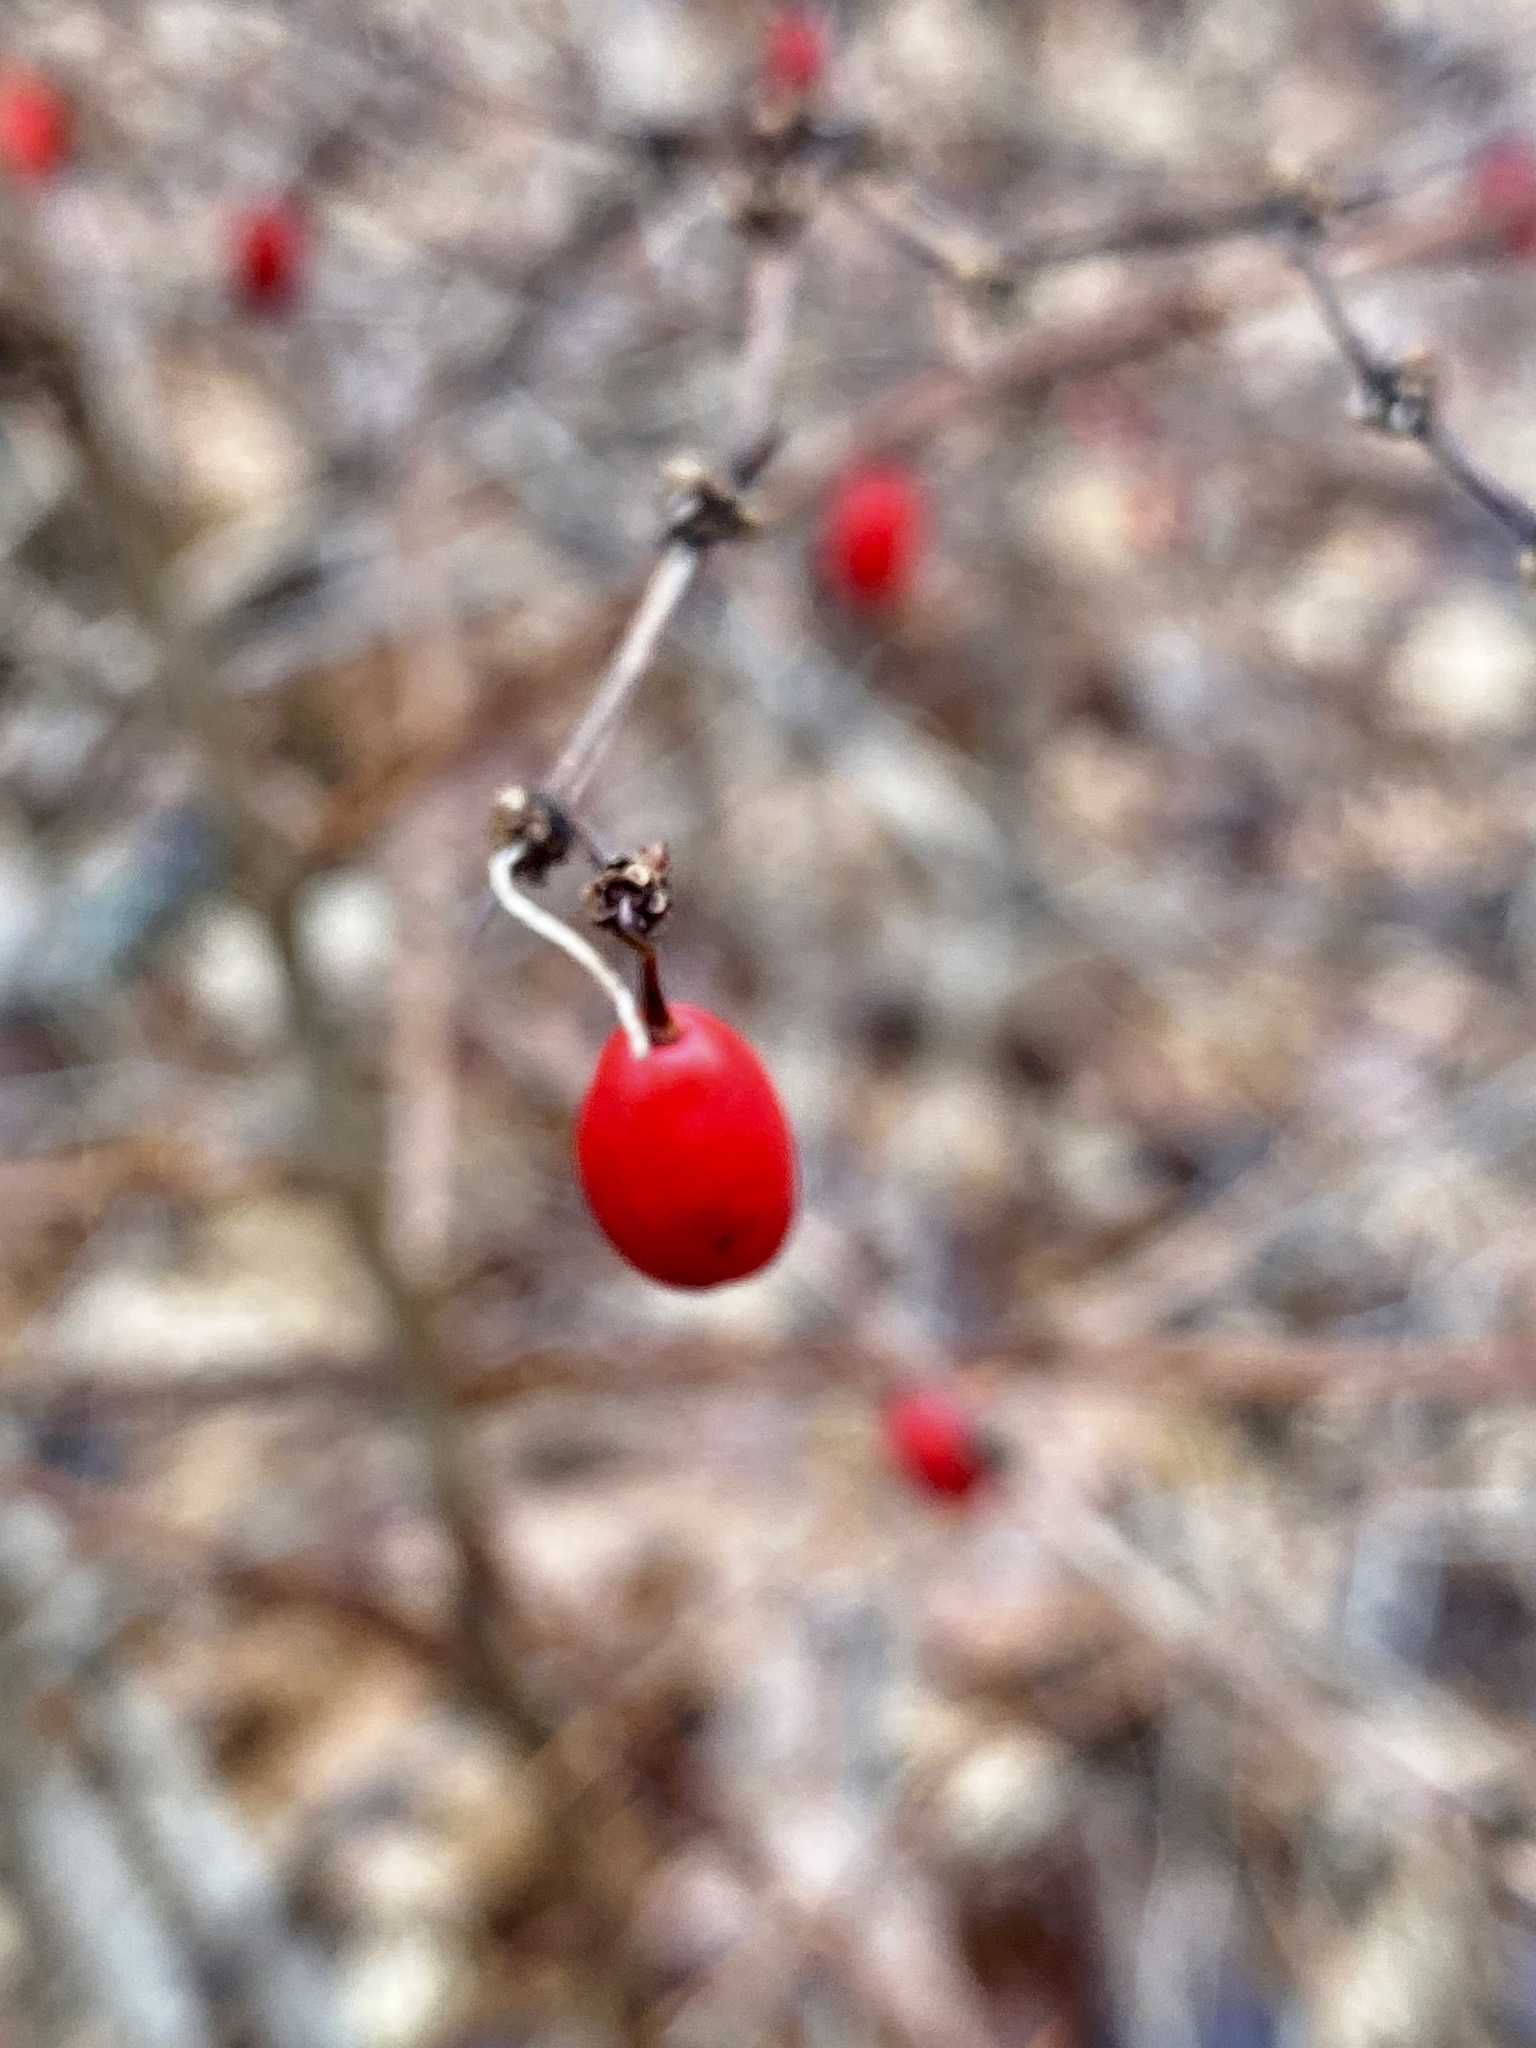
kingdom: Plantae
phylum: Tracheophyta
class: Magnoliopsida
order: Ranunculales
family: Berberidaceae
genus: Berberis
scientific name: Berberis thunbergii
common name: Japanese barberry
